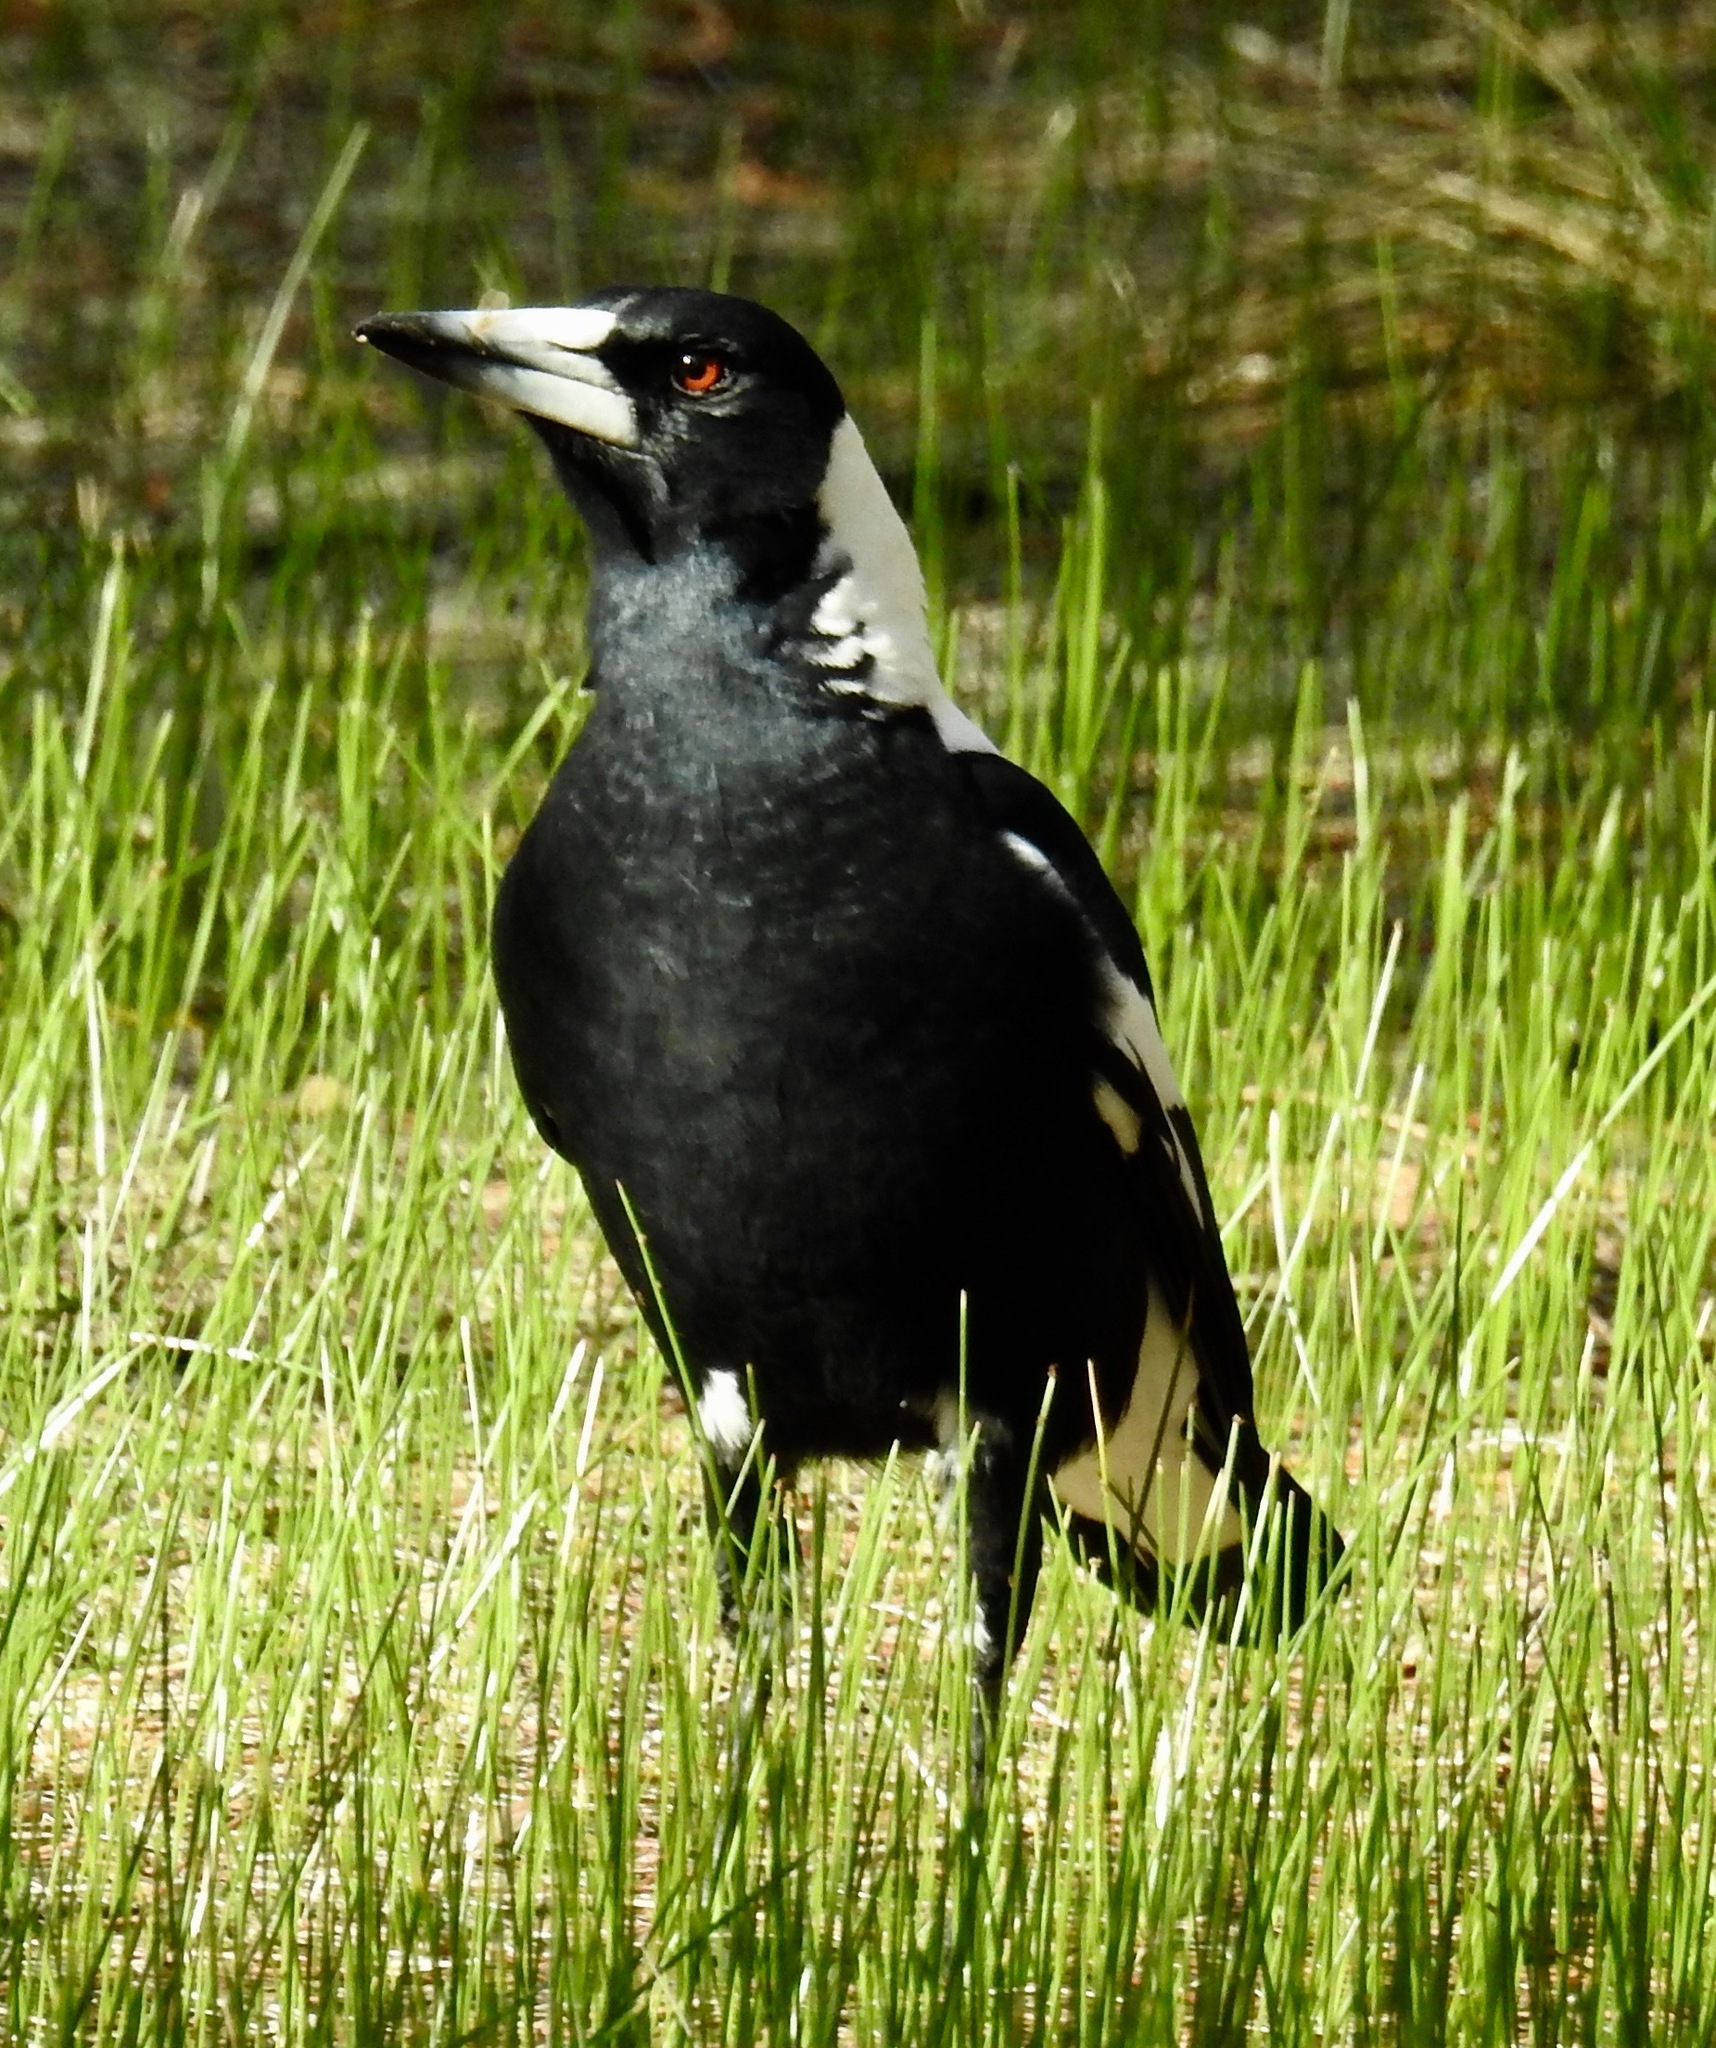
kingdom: Animalia
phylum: Chordata
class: Aves
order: Passeriformes
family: Cracticidae
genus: Gymnorhina
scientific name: Gymnorhina tibicen
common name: Australian magpie
